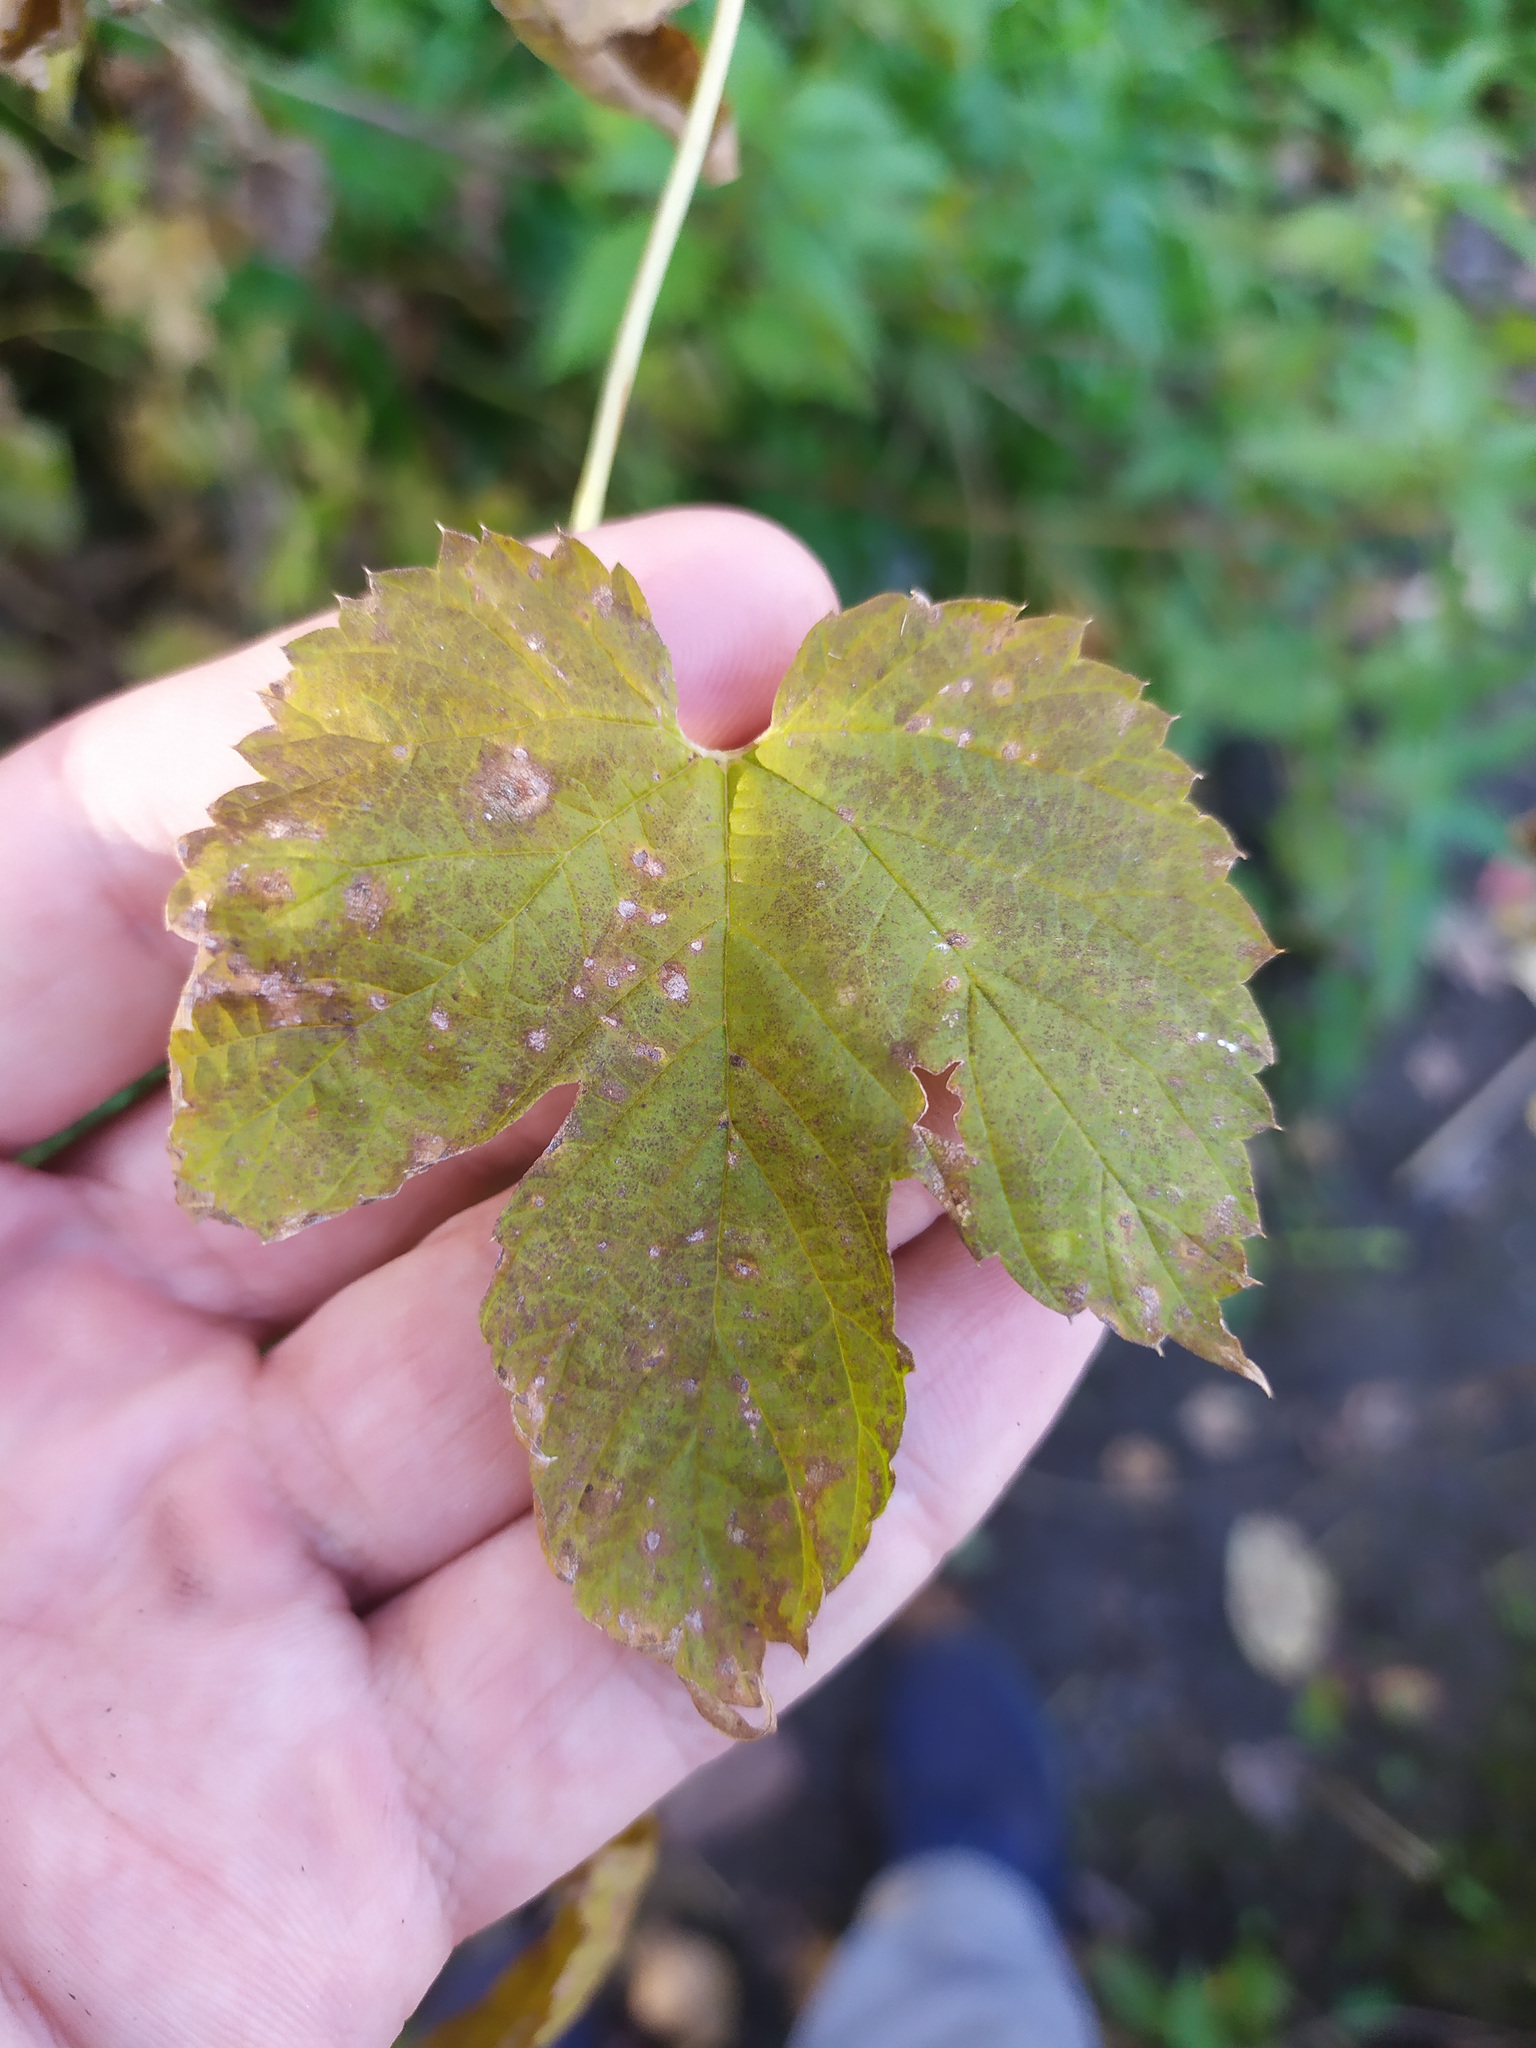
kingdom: Plantae
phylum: Tracheophyta
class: Magnoliopsida
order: Rosales
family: Cannabaceae
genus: Humulus
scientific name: Humulus lupulus
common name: Hop
